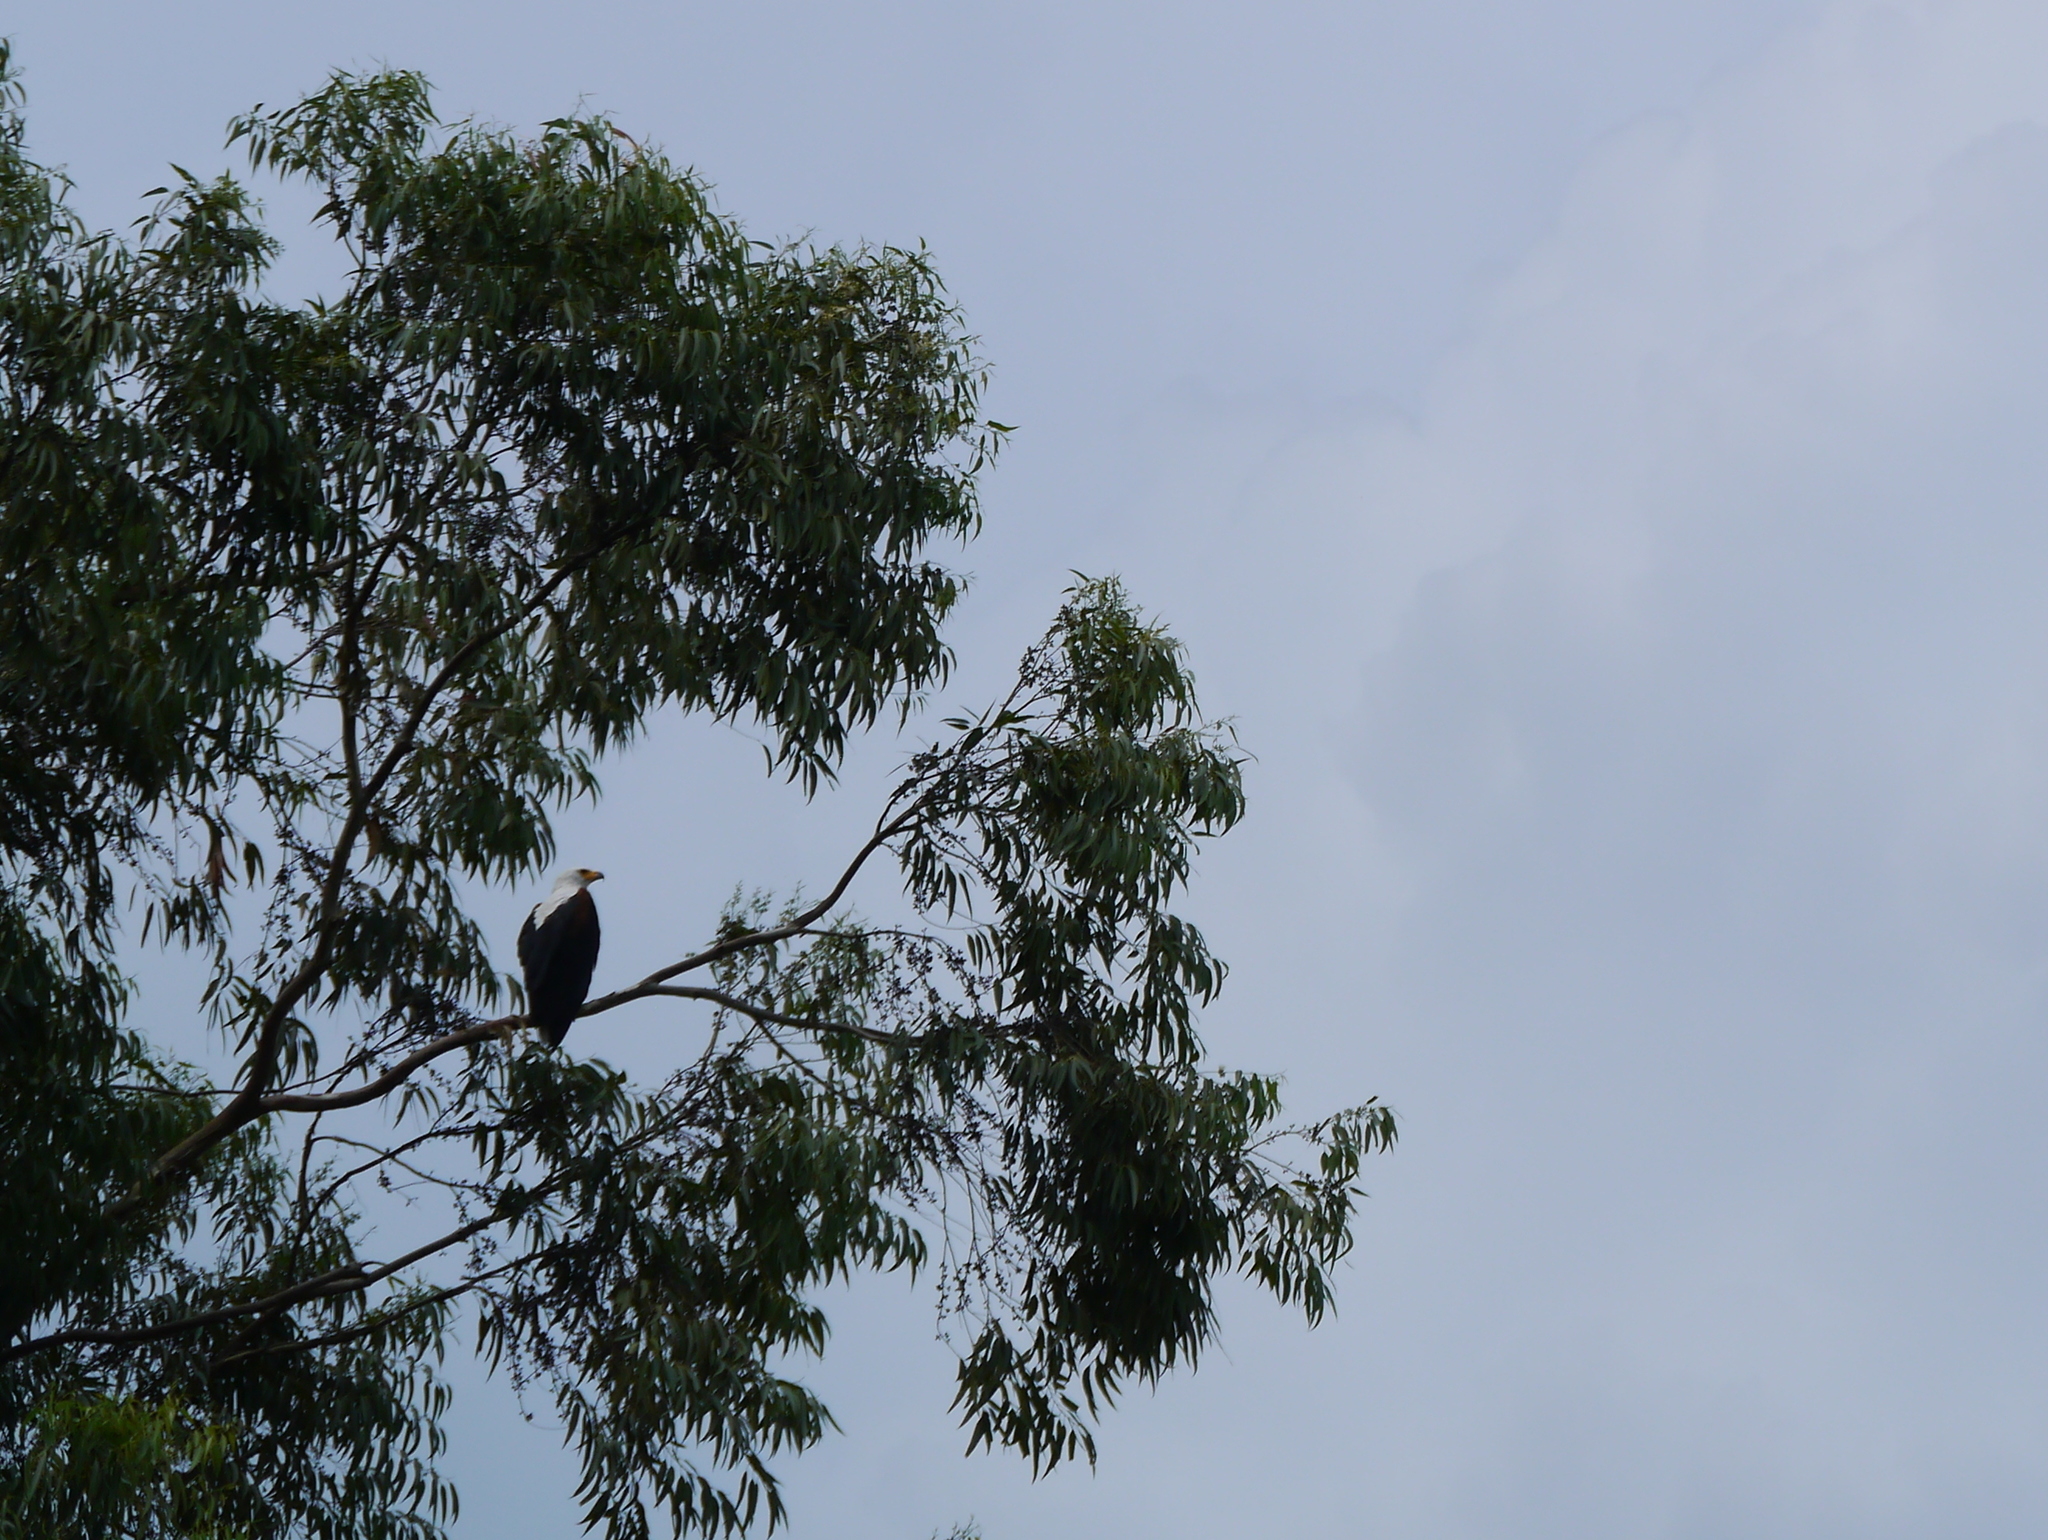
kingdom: Animalia
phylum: Chordata
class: Aves
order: Accipitriformes
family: Accipitridae
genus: Haliaeetus
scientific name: Haliaeetus vocifer
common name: African fish eagle
